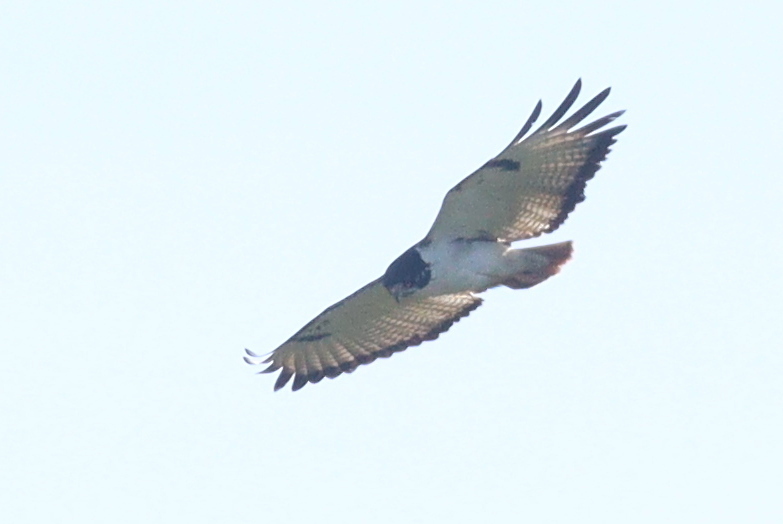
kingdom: Animalia
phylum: Chordata
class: Aves
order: Accipitriformes
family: Accipitridae
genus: Buteo
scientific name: Buteo augur
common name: Augur buzzard
